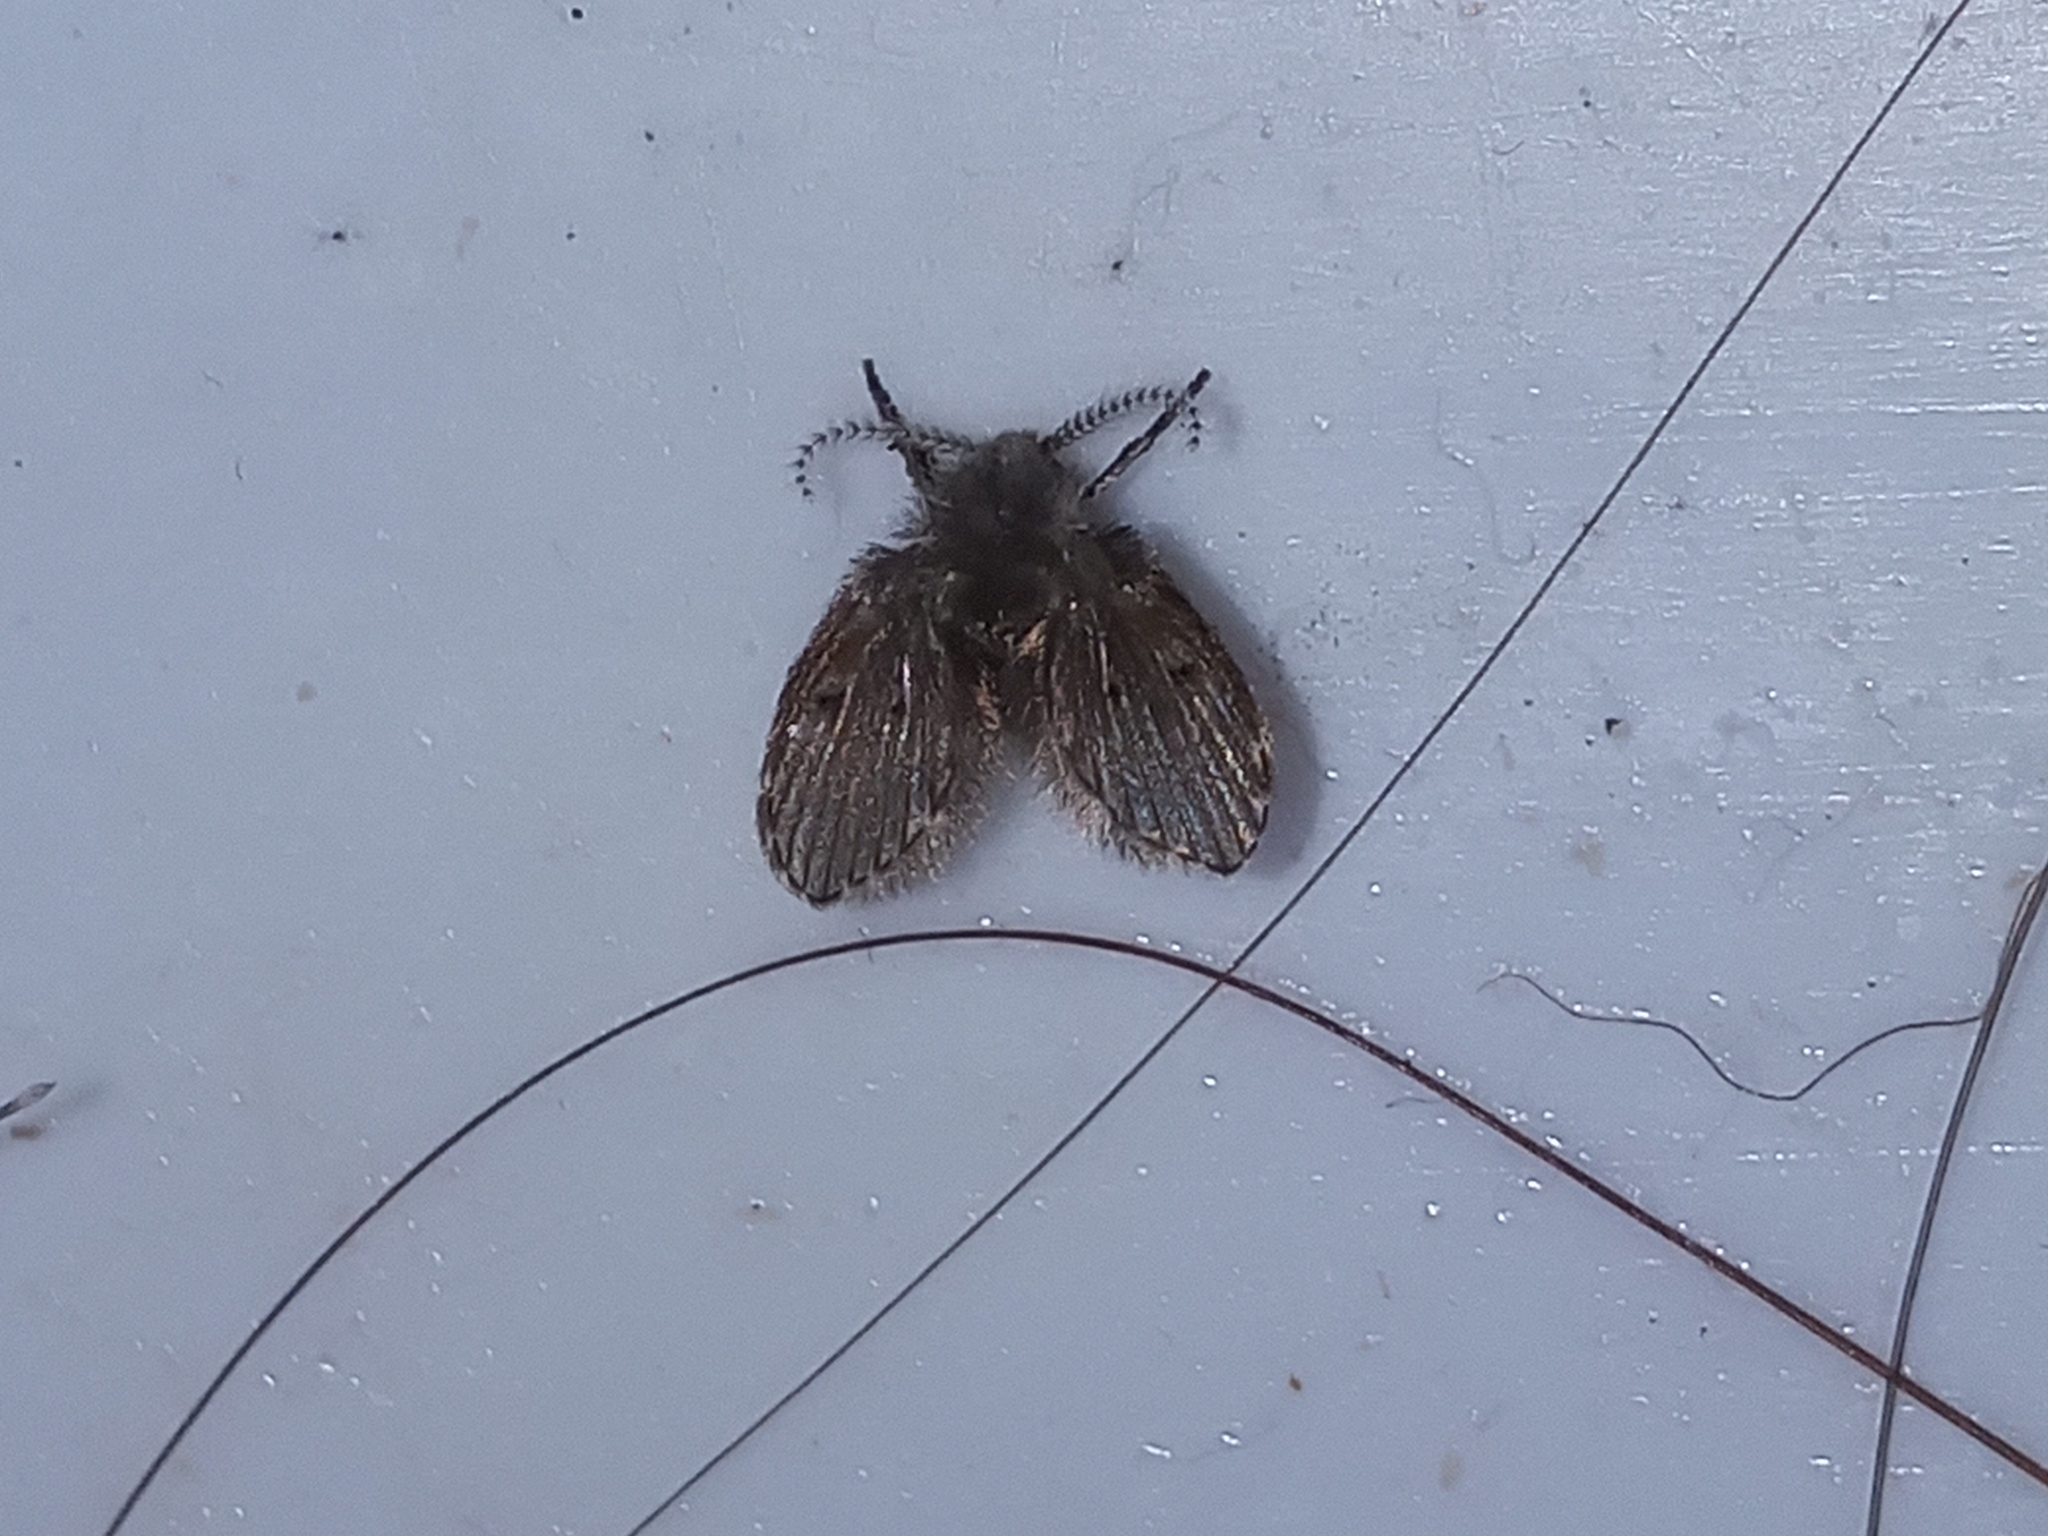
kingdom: Animalia
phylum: Arthropoda
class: Insecta
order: Diptera
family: Psychodidae
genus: Clogmia
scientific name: Clogmia albipunctatus
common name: White-spotted moth fly
